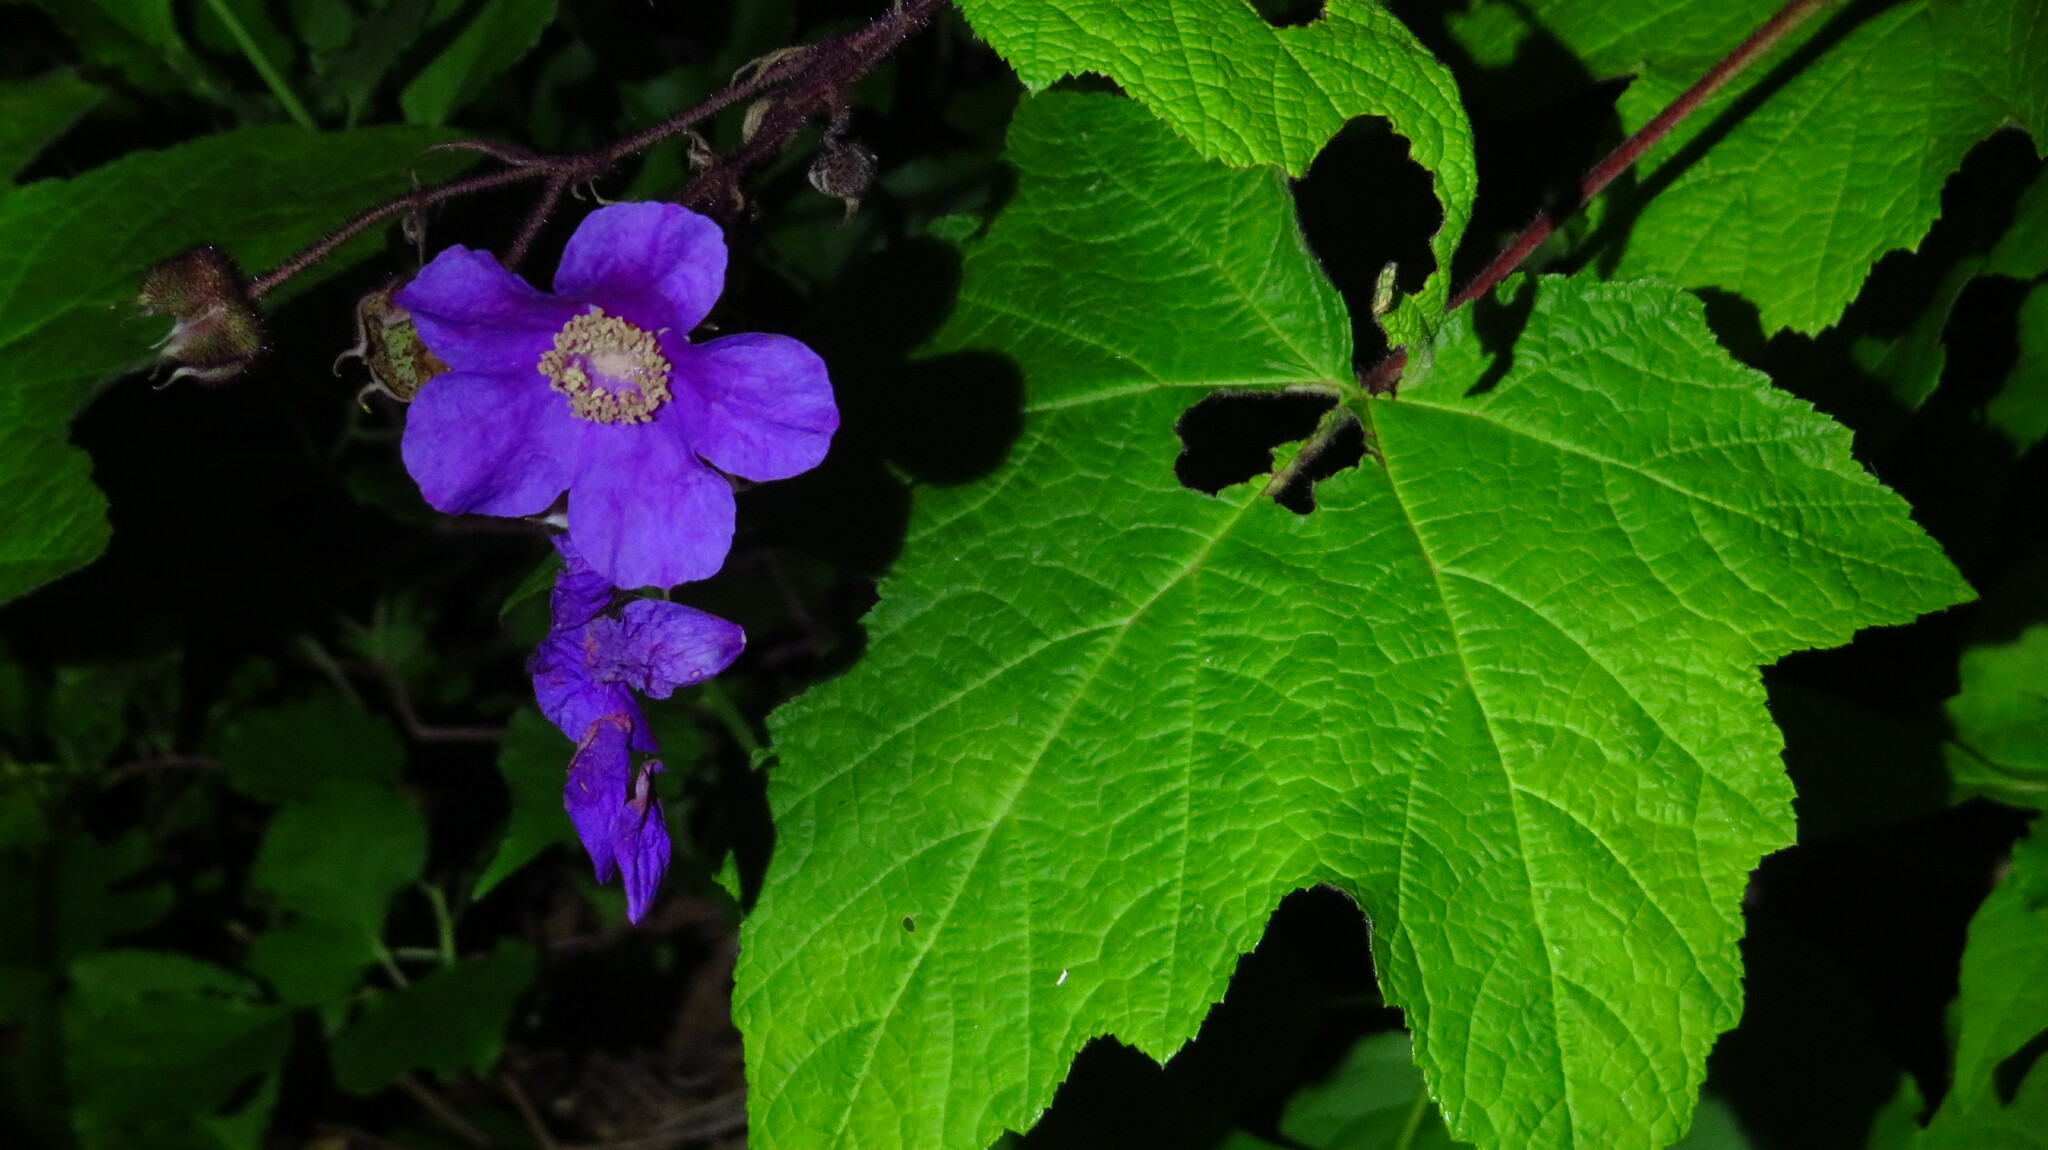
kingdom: Plantae
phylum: Tracheophyta
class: Magnoliopsida
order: Rosales
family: Rosaceae
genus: Rubus
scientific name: Rubus odoratus
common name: Purple-flowered raspberry
